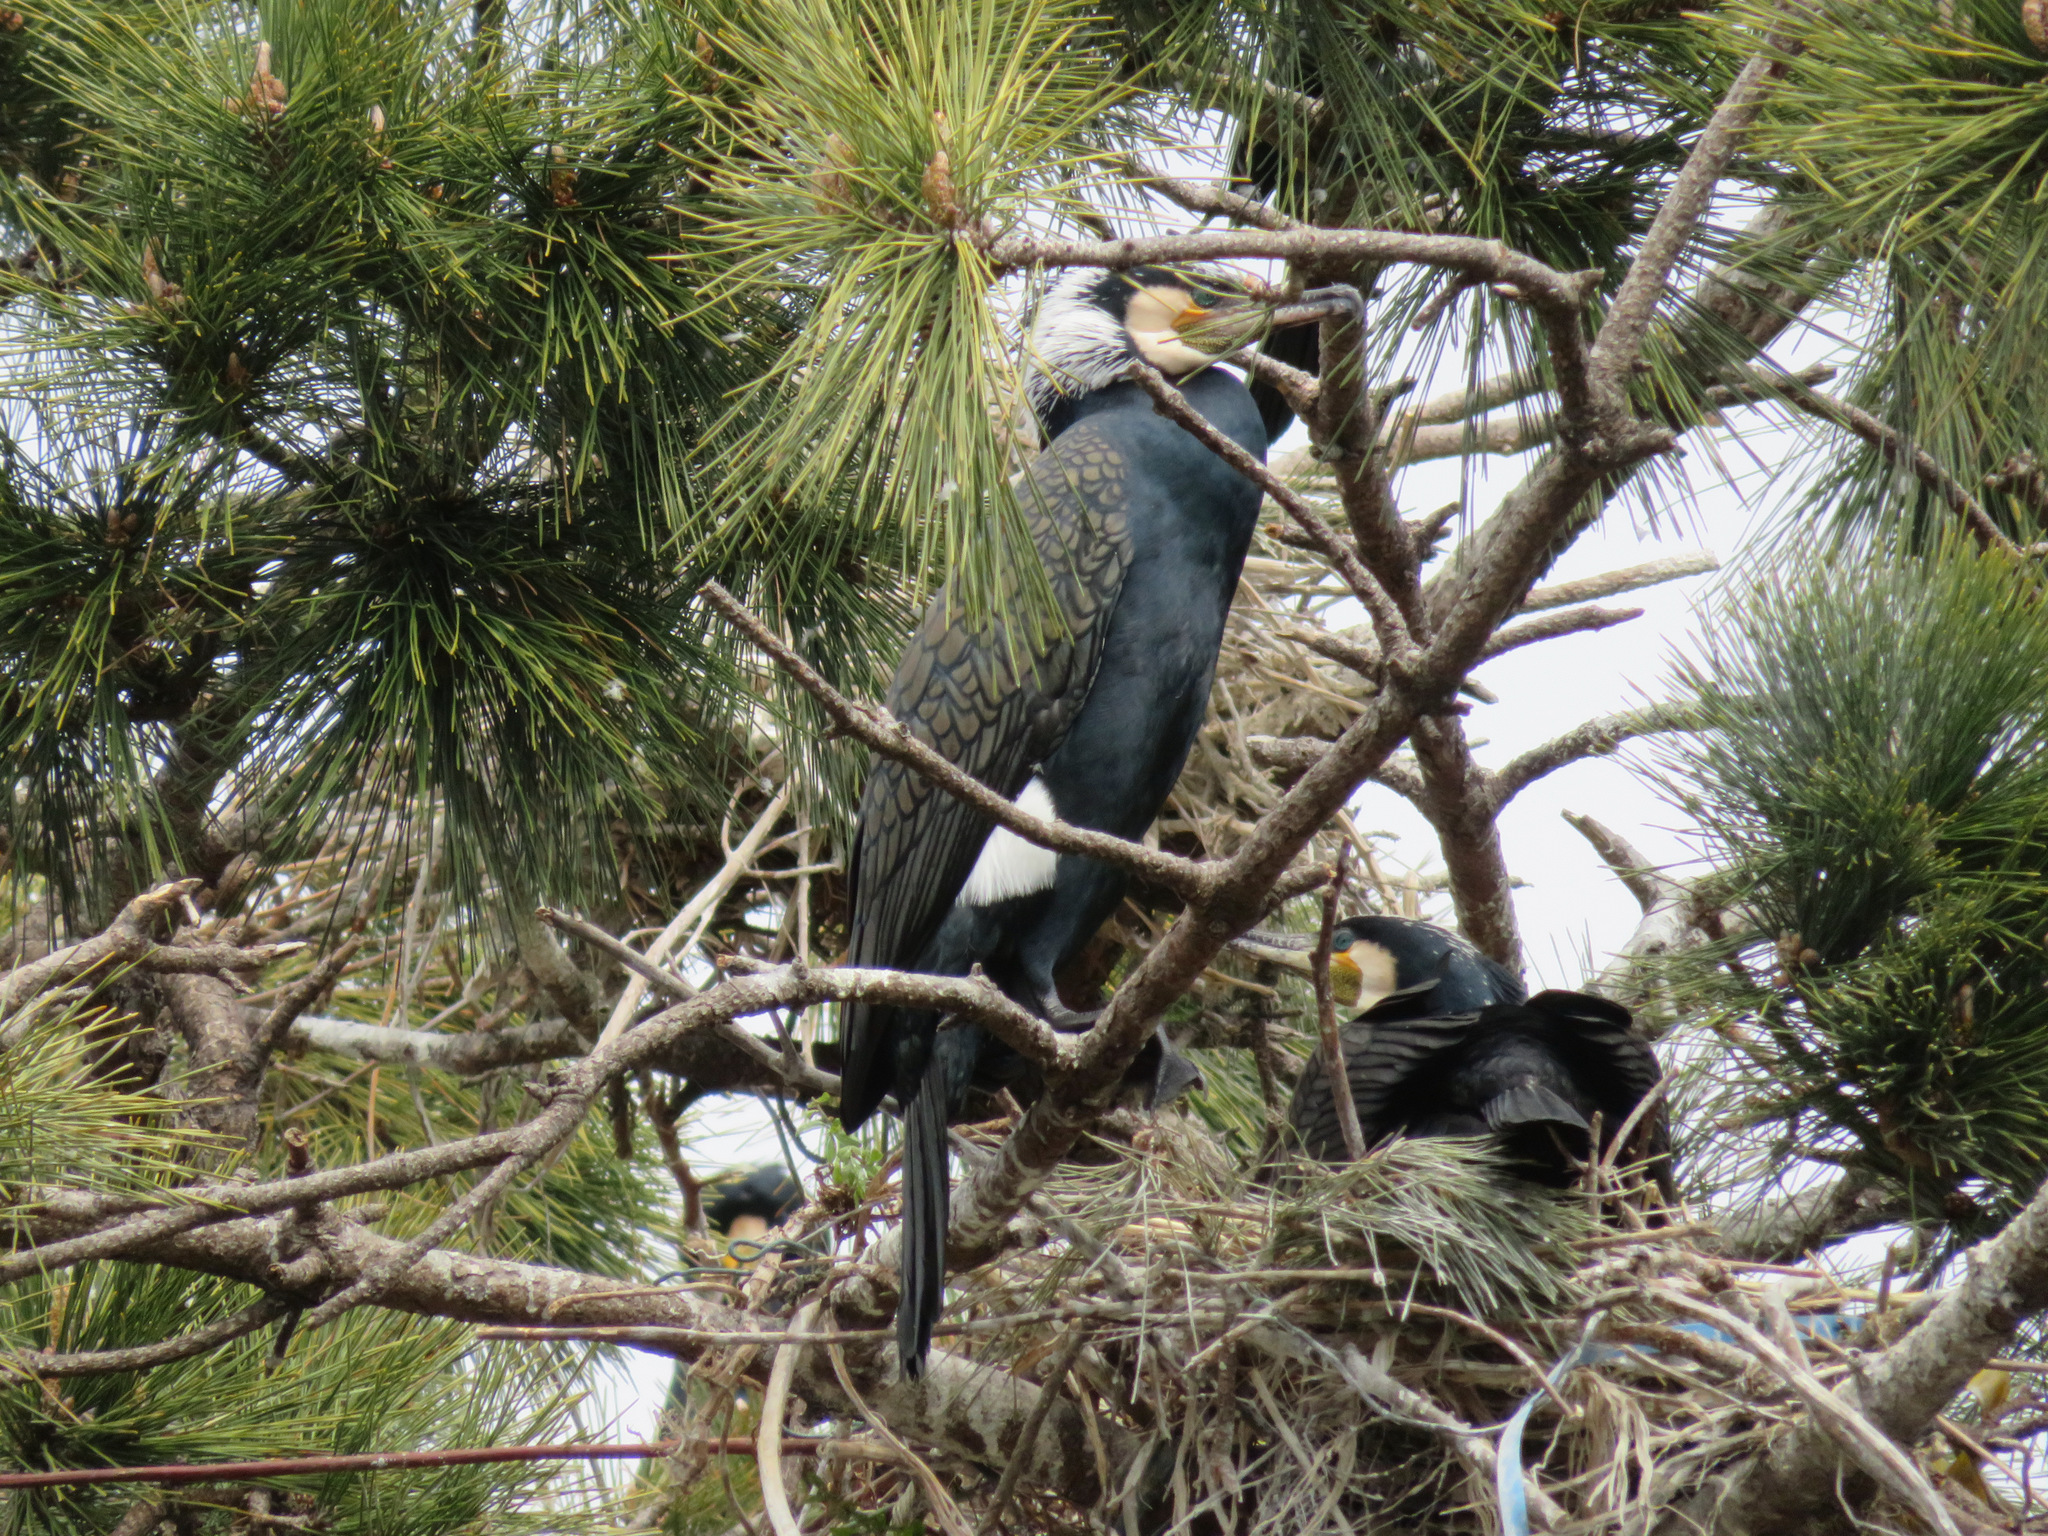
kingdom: Animalia
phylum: Chordata
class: Aves
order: Suliformes
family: Phalacrocoracidae
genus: Phalacrocorax
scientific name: Phalacrocorax carbo
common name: Great cormorant
